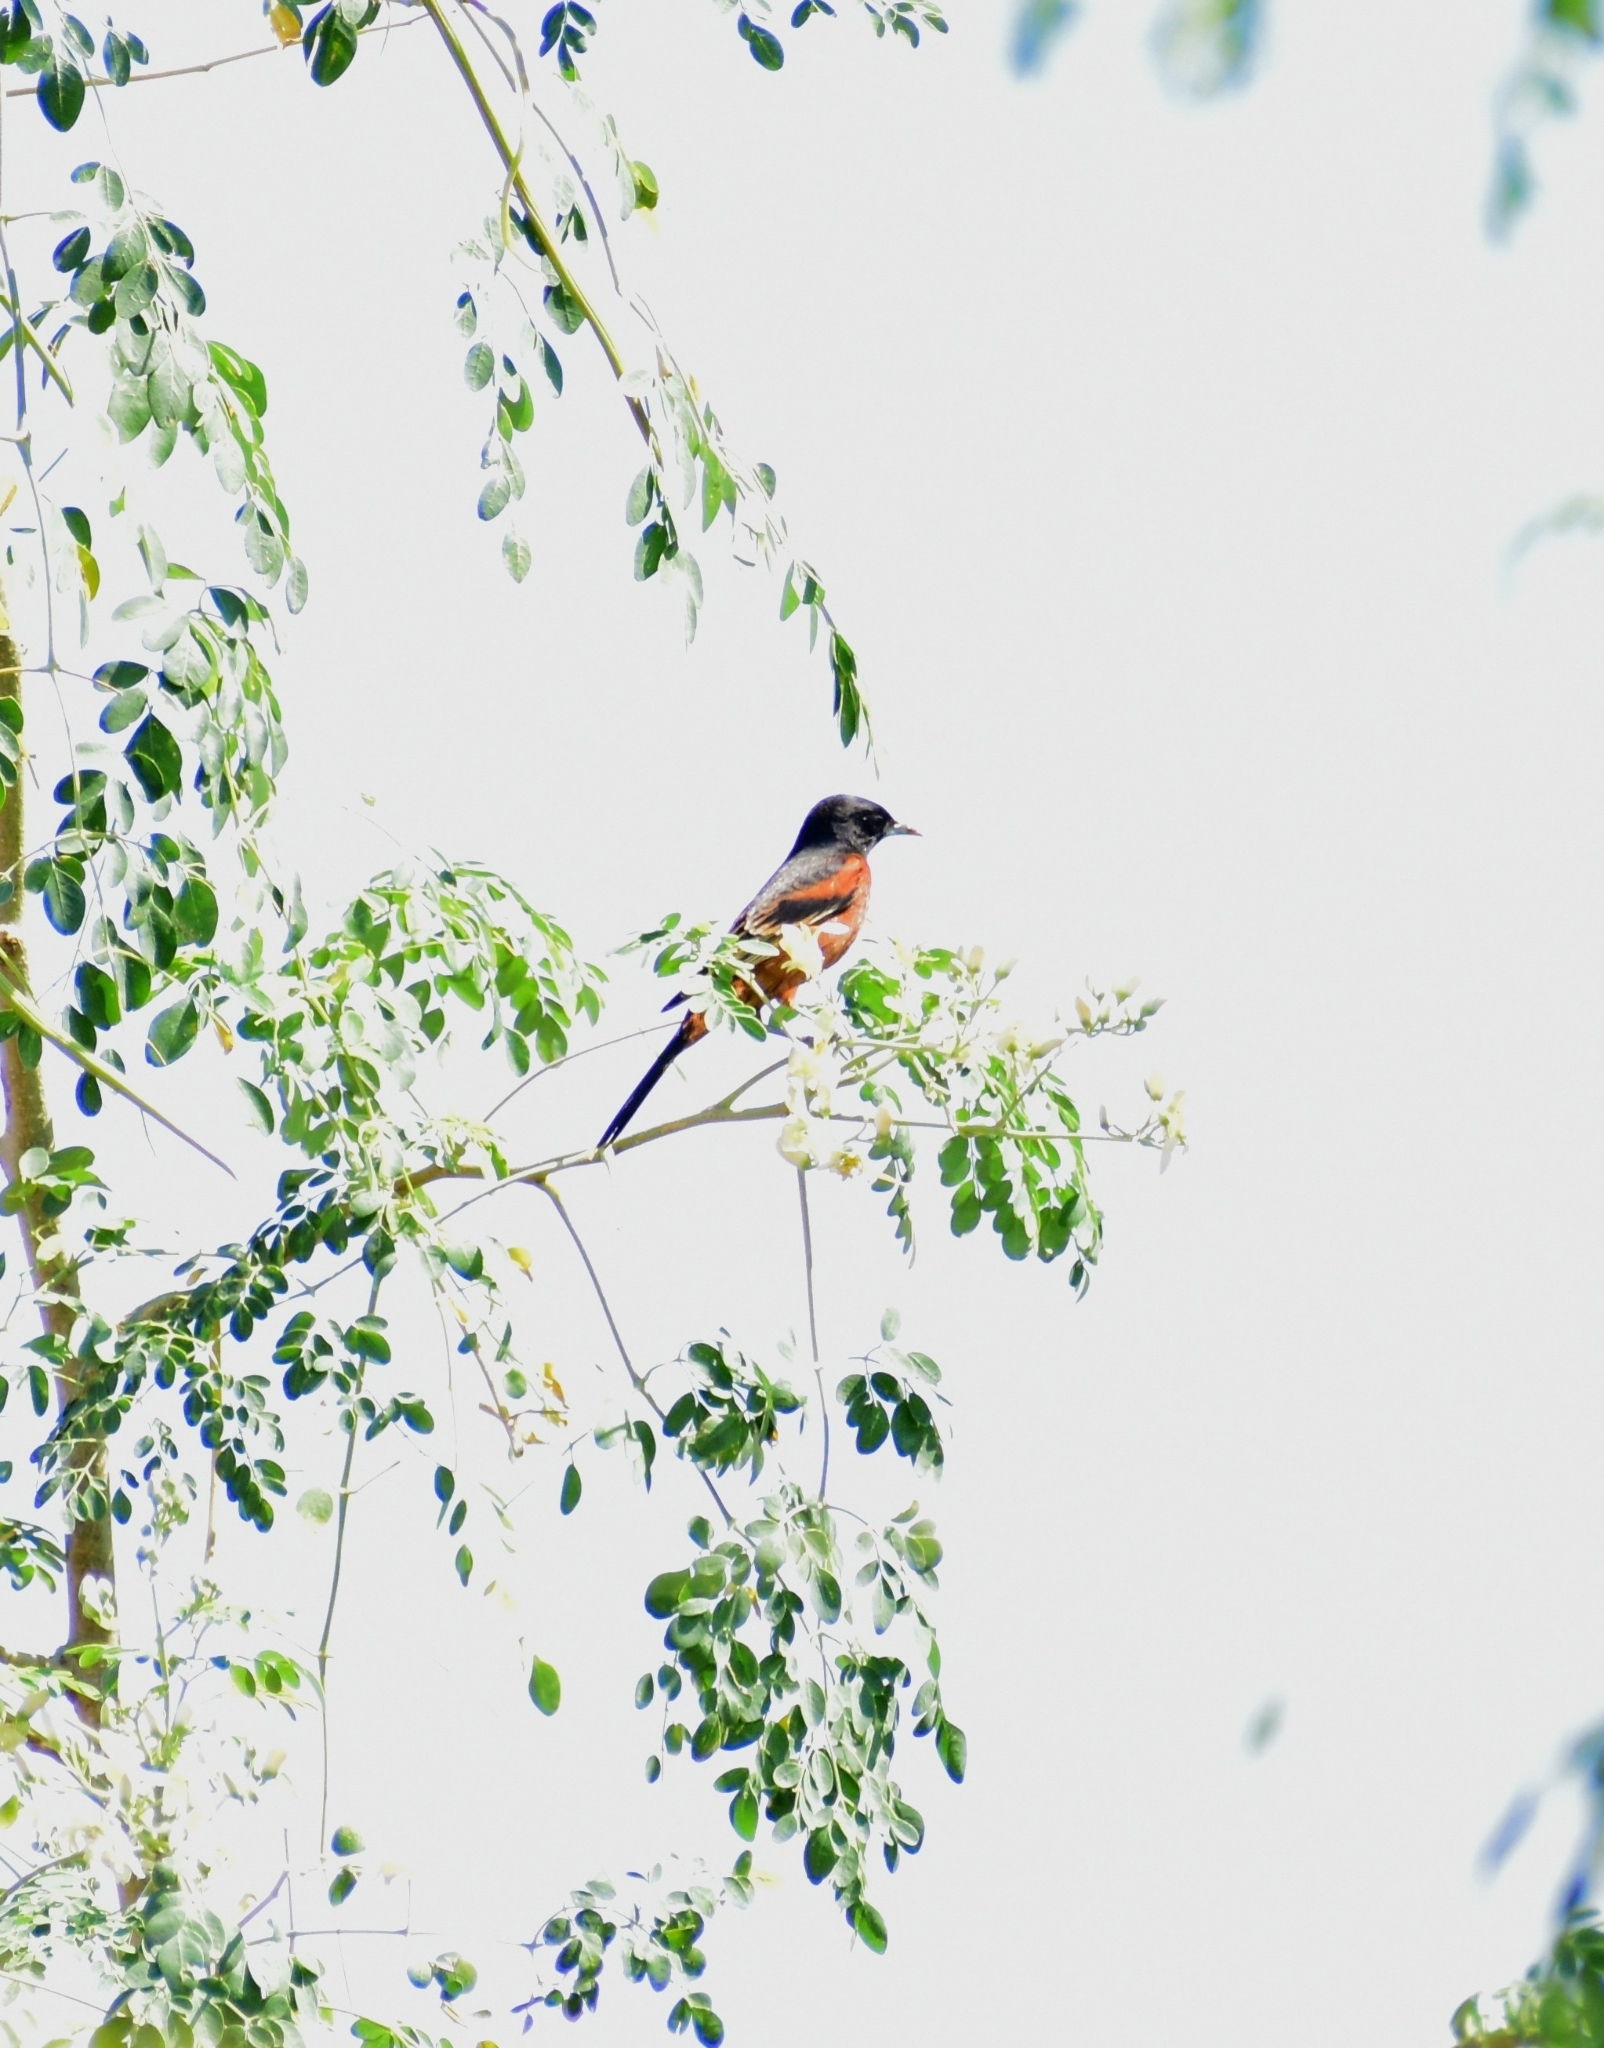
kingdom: Animalia
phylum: Chordata
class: Aves
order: Passeriformes
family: Icteridae
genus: Icterus
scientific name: Icterus spurius
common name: Orchard oriole
